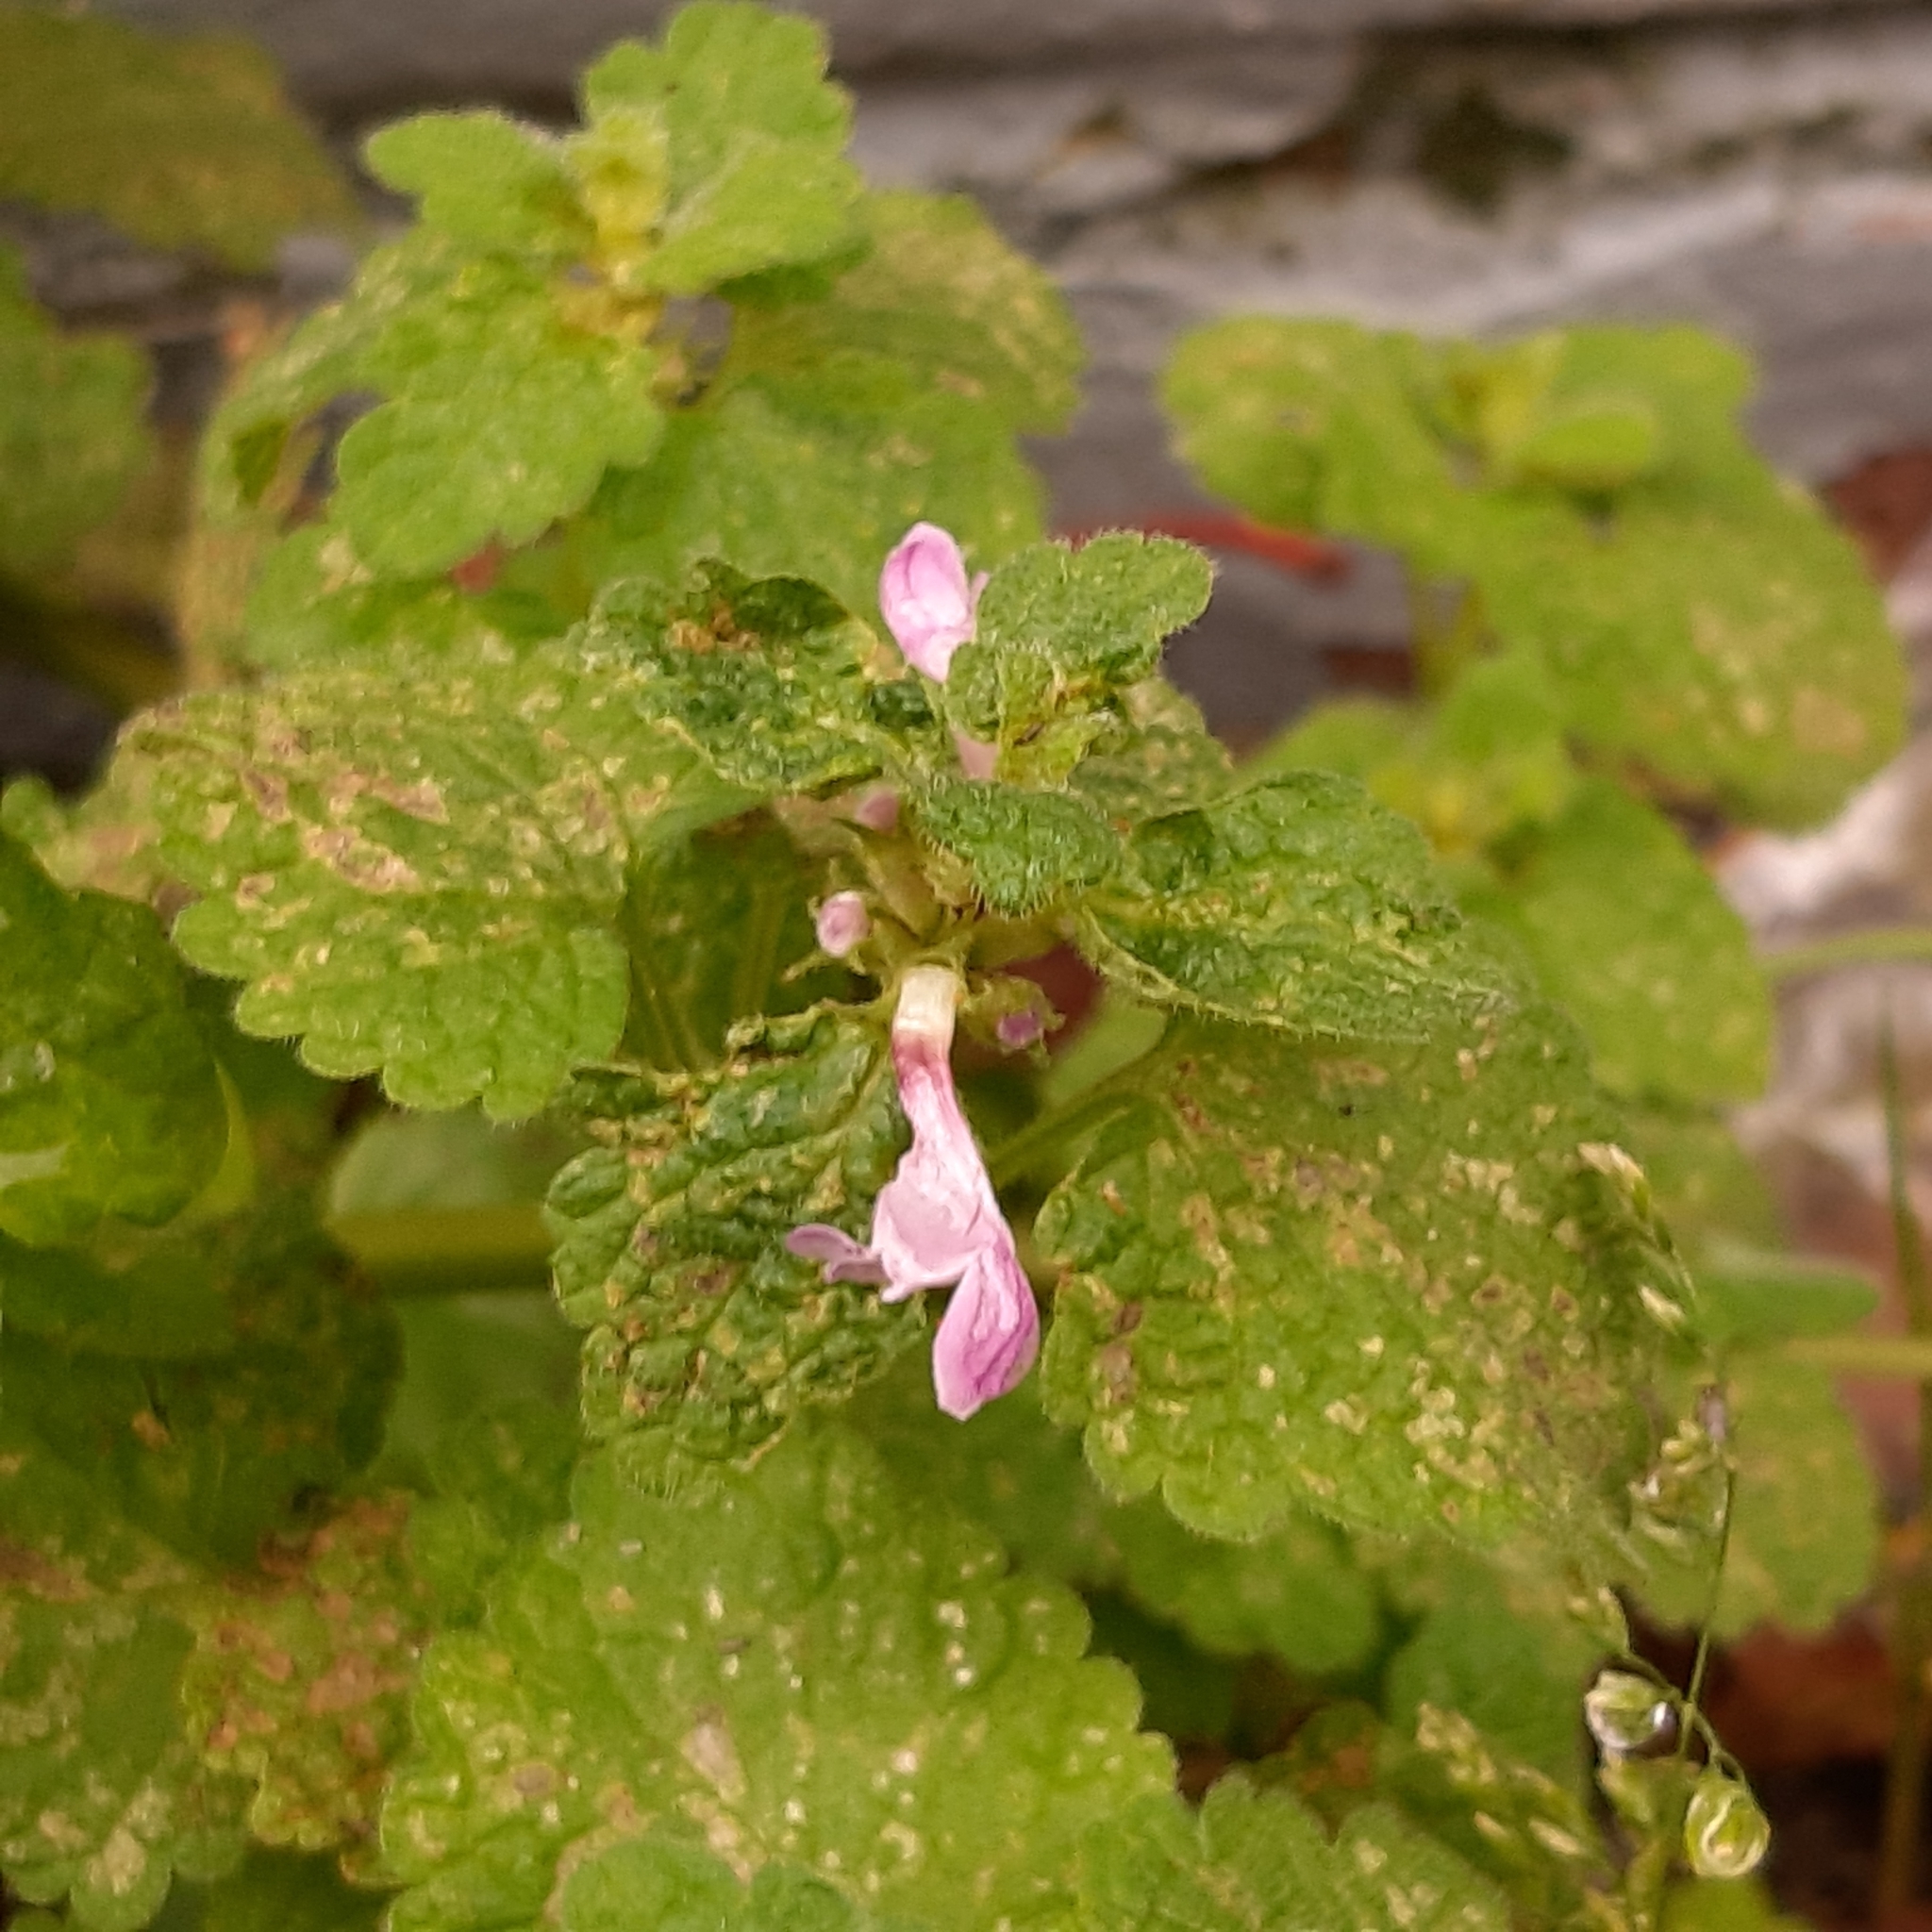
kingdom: Plantae
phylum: Tracheophyta
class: Magnoliopsida
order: Lamiales
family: Lamiaceae
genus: Lamium
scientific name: Lamium purpureum
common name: Red dead-nettle
